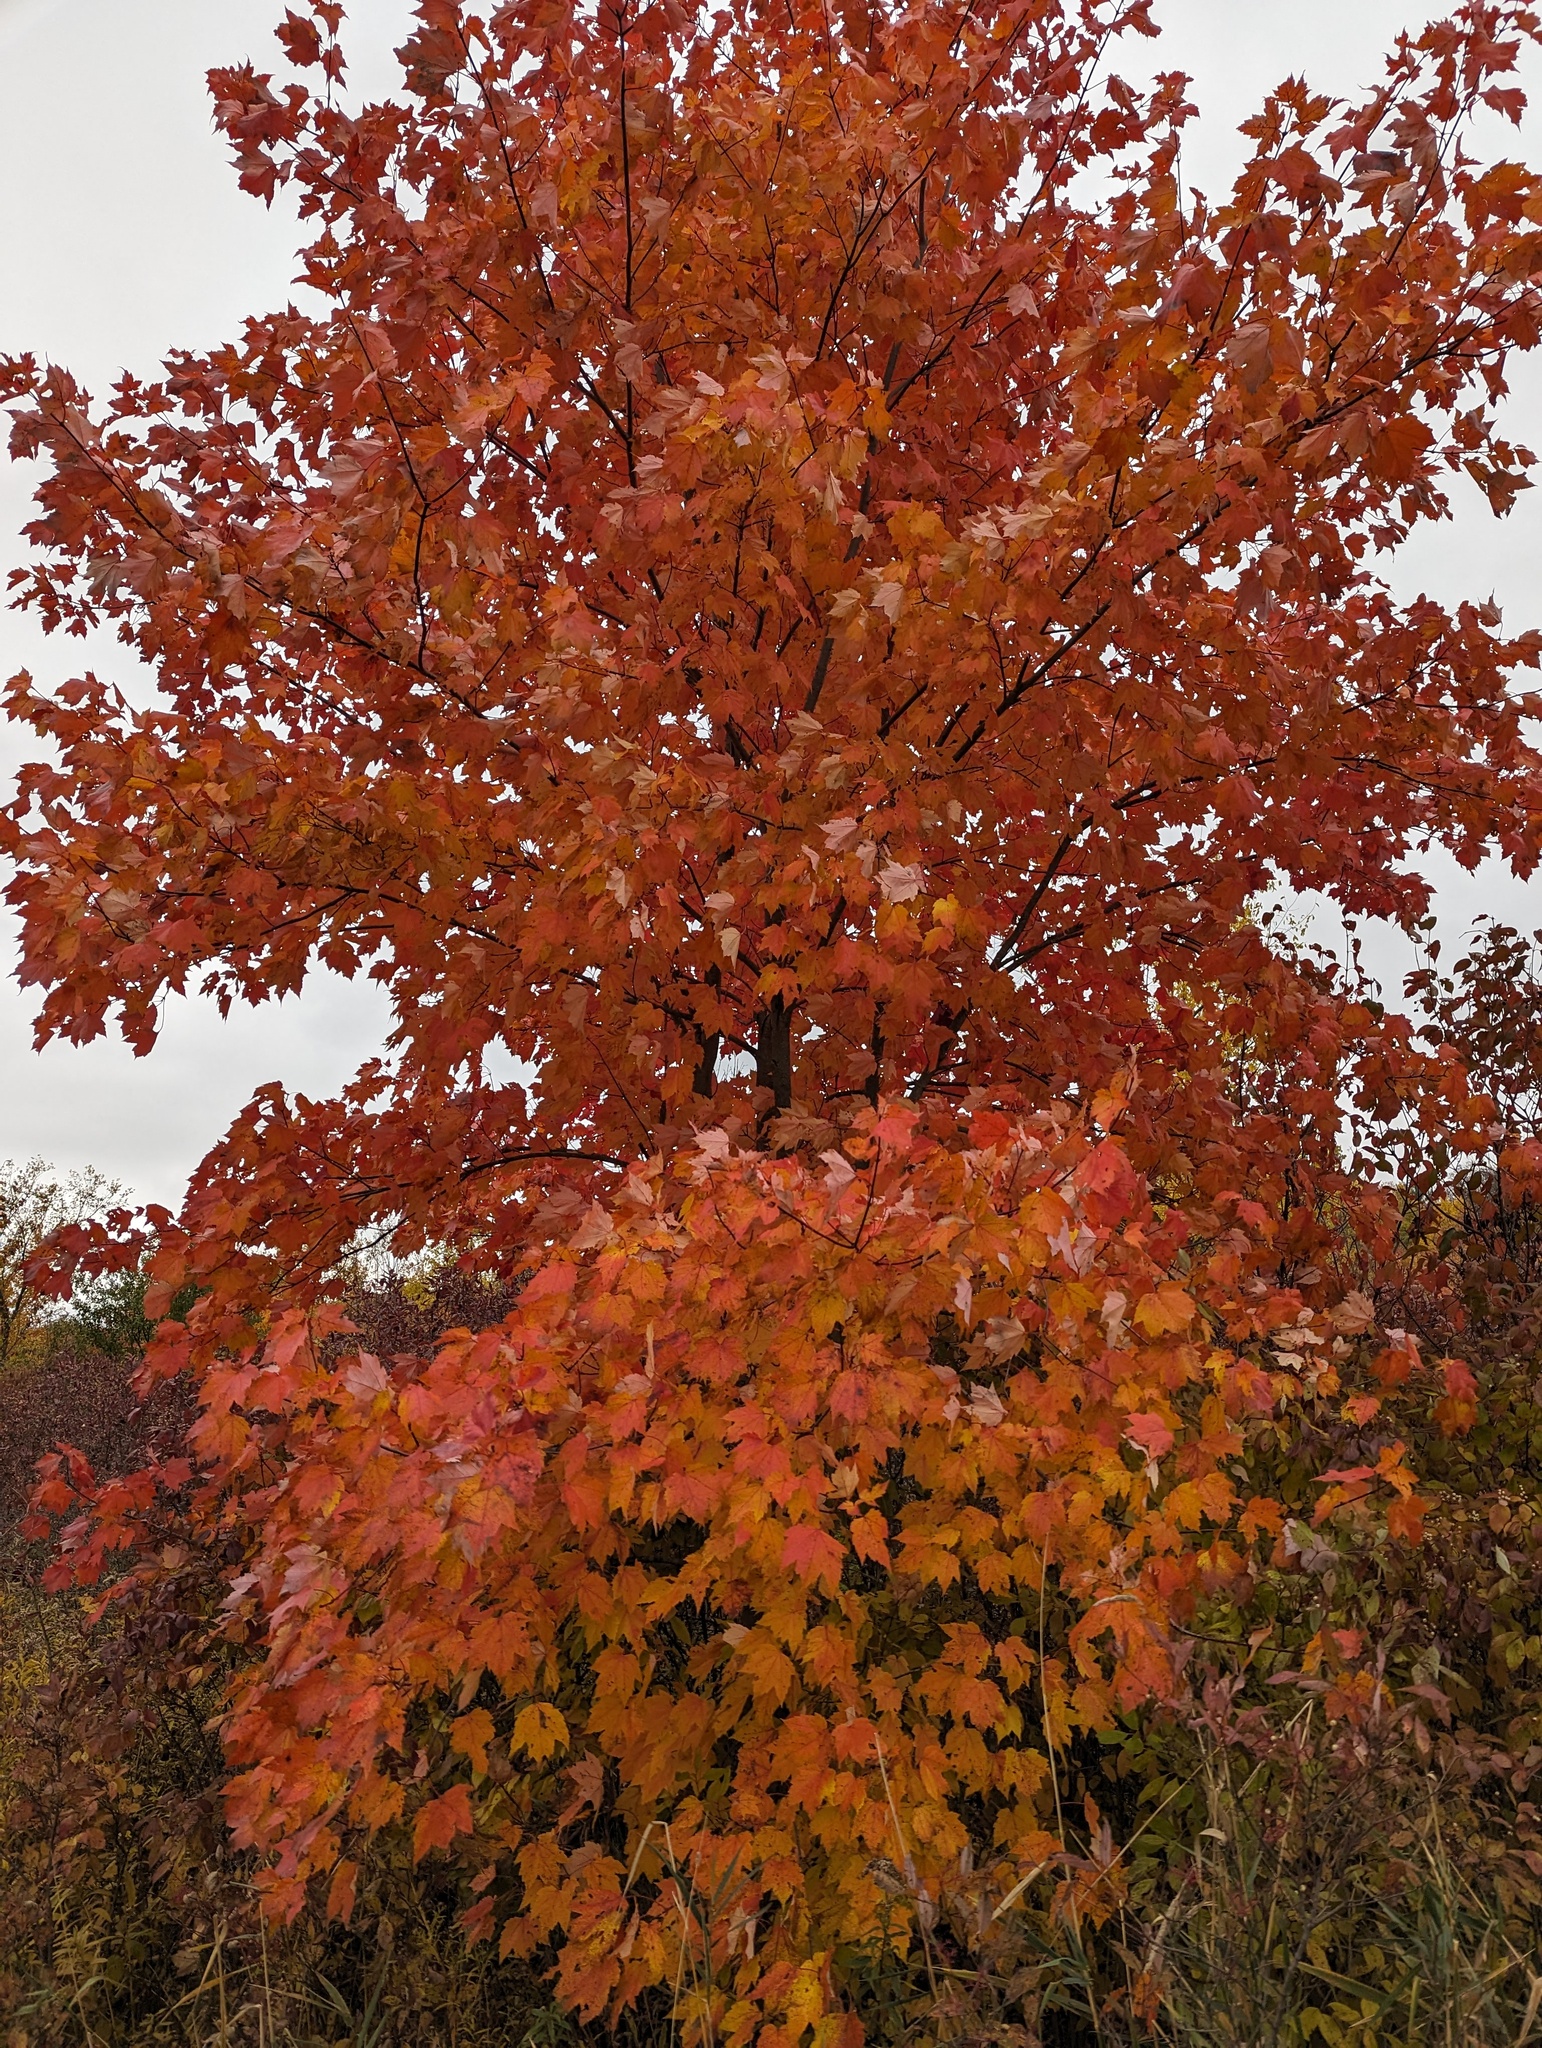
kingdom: Plantae
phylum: Tracheophyta
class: Magnoliopsida
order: Sapindales
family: Sapindaceae
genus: Acer
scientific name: Acer rubrum
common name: Red maple
